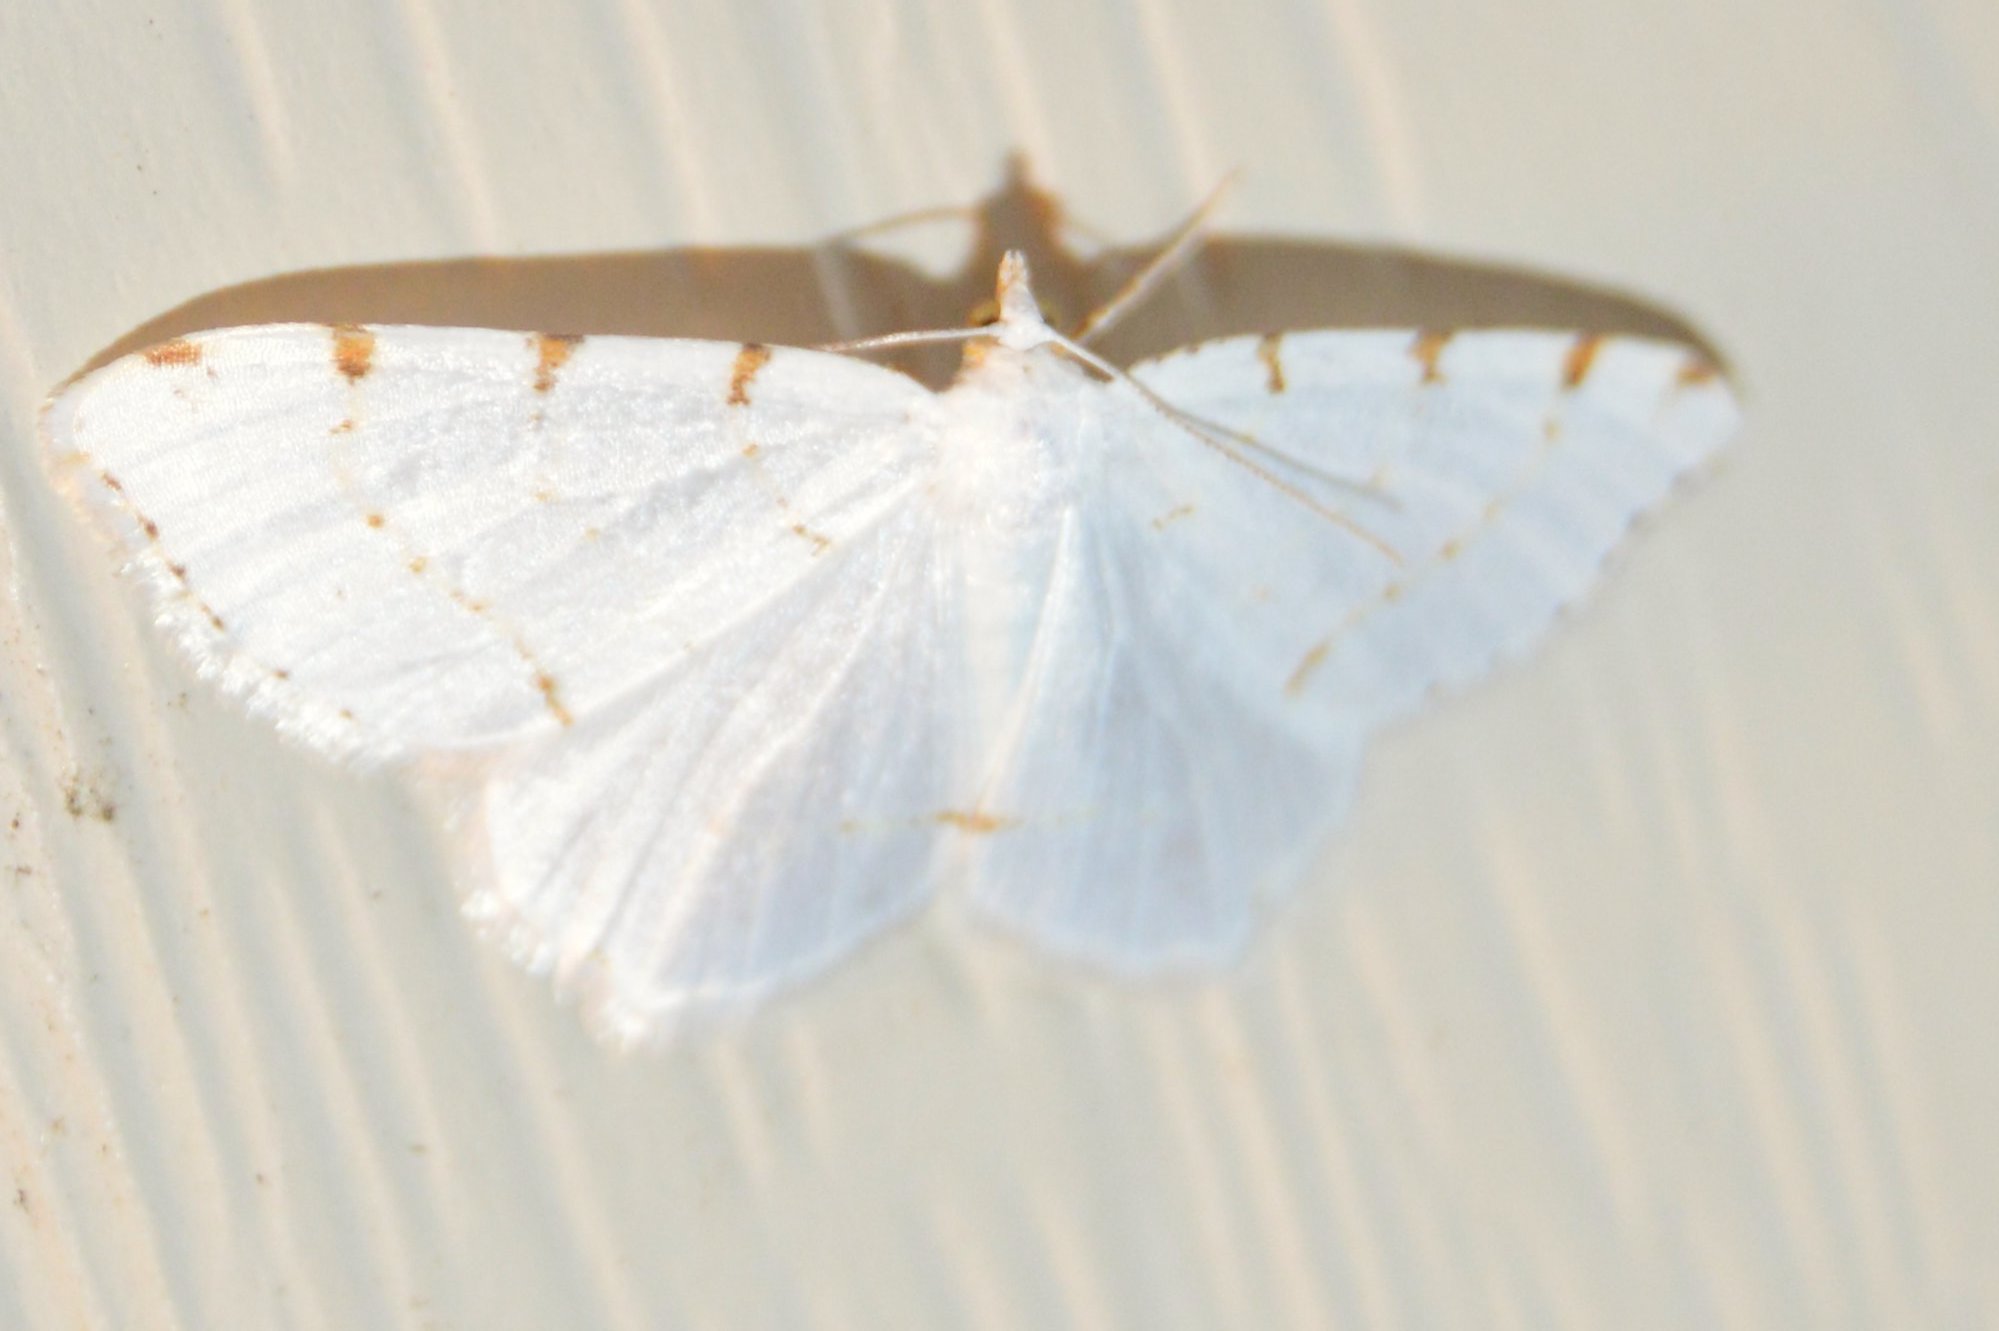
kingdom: Animalia
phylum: Arthropoda
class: Insecta
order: Lepidoptera
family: Geometridae
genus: Macaria
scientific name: Macaria pustularia
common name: Lesser maple spanworm moth
